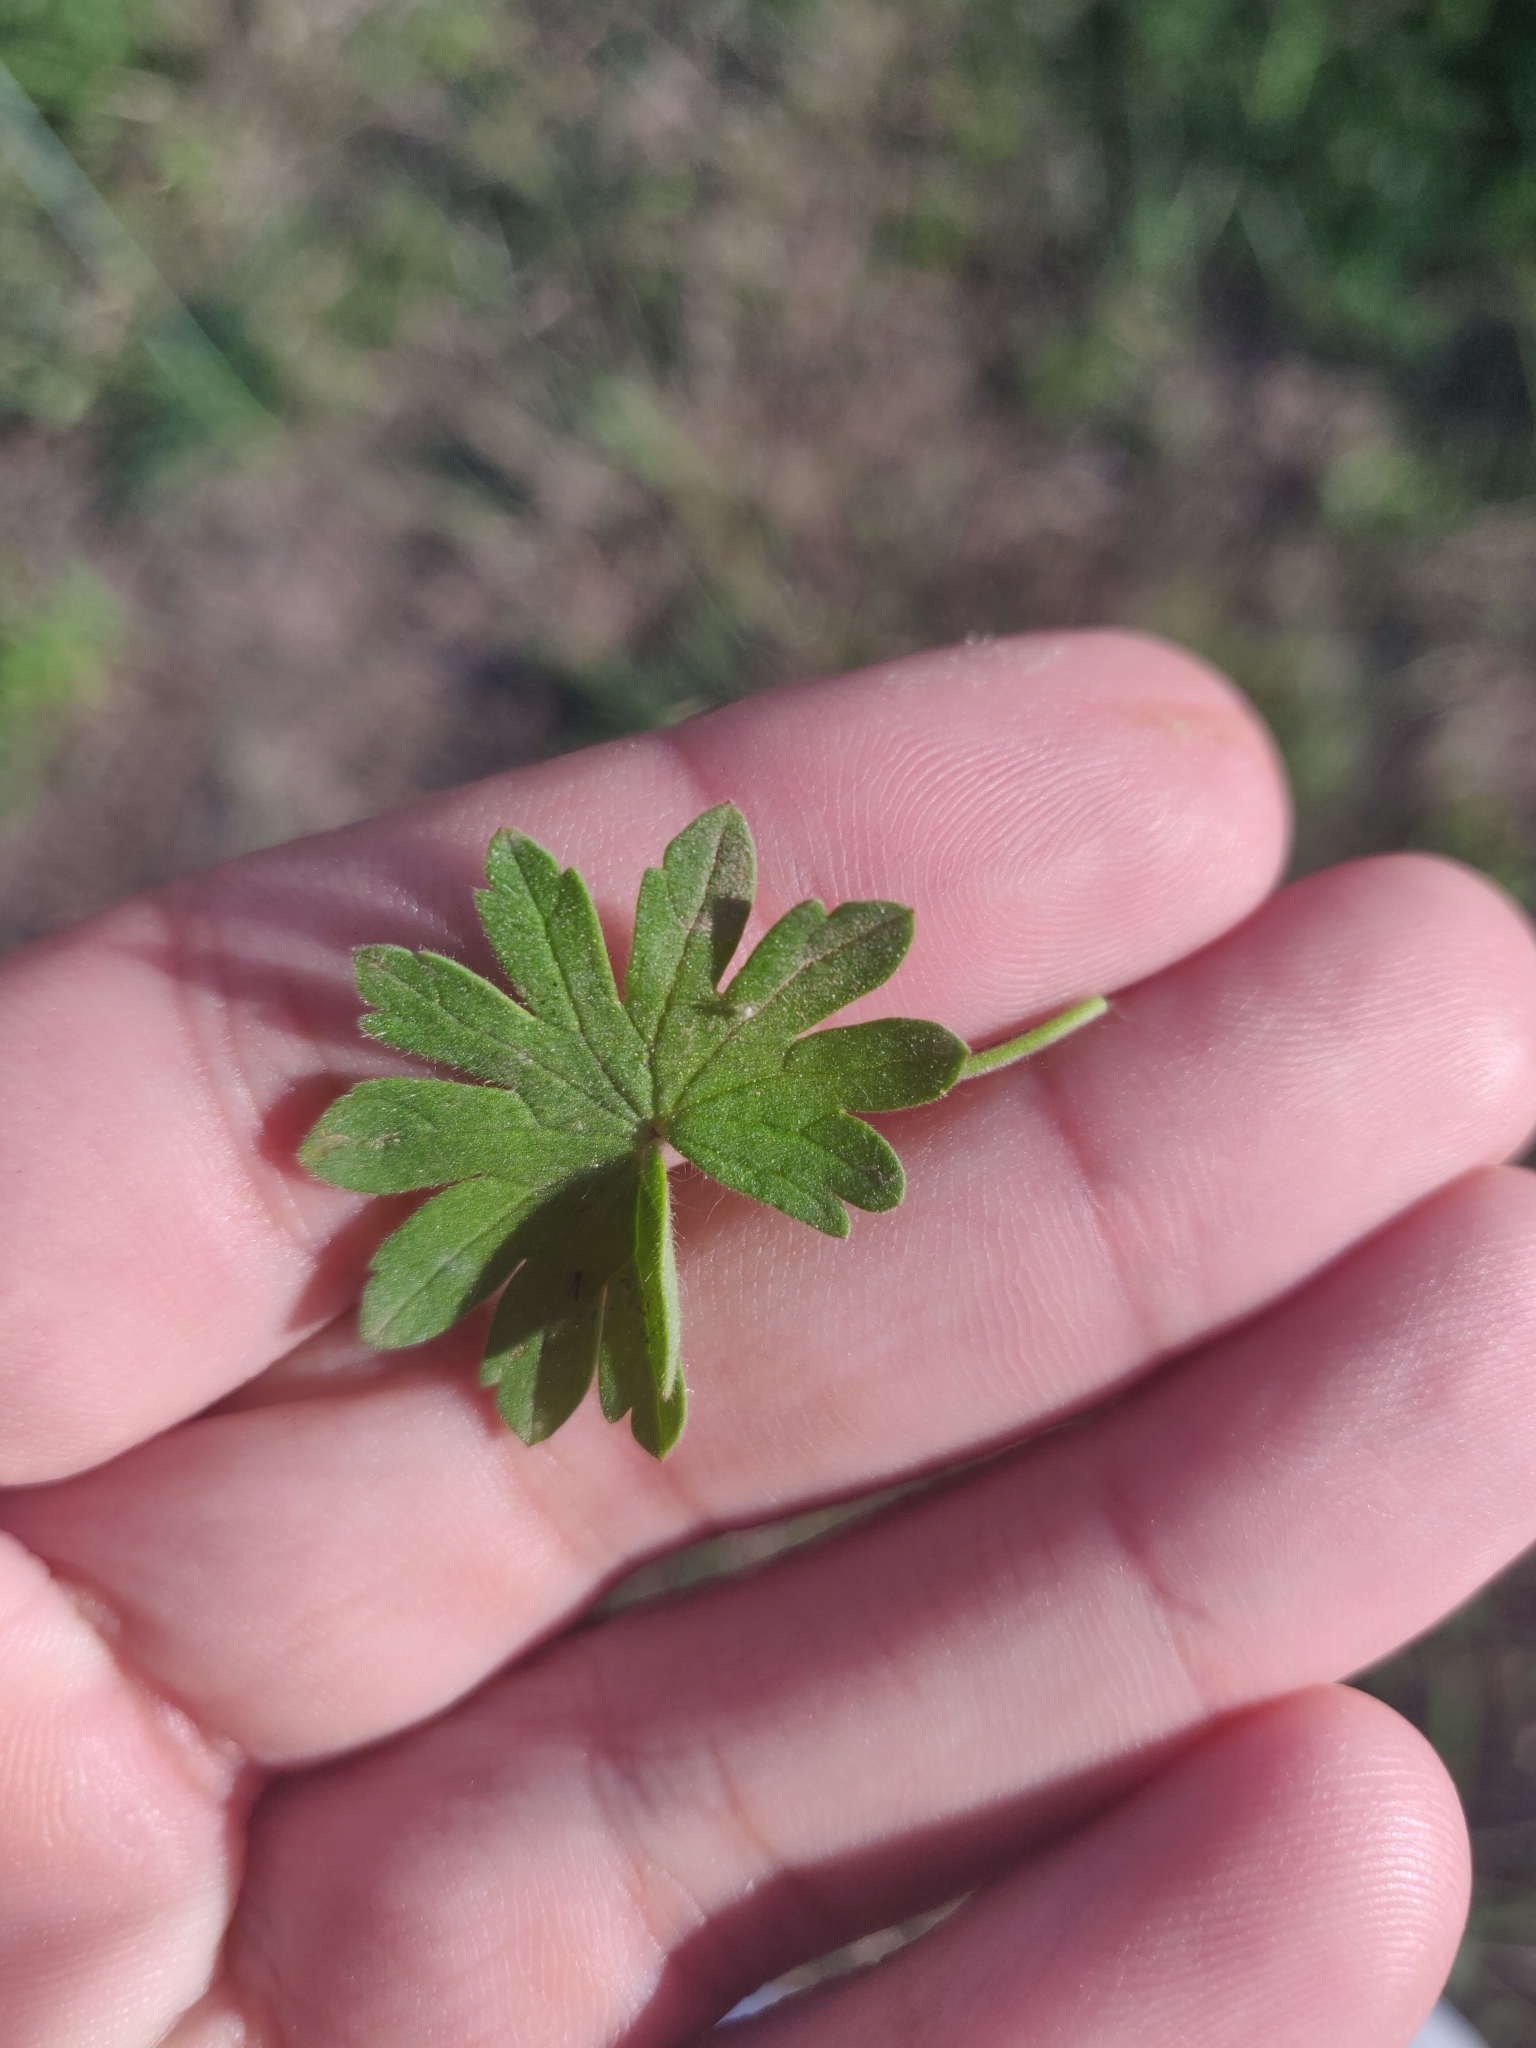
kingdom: Plantae
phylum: Tracheophyta
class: Magnoliopsida
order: Geraniales
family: Geraniaceae
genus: Geranium
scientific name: Geranium molle
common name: Dove's-foot crane's-bill
